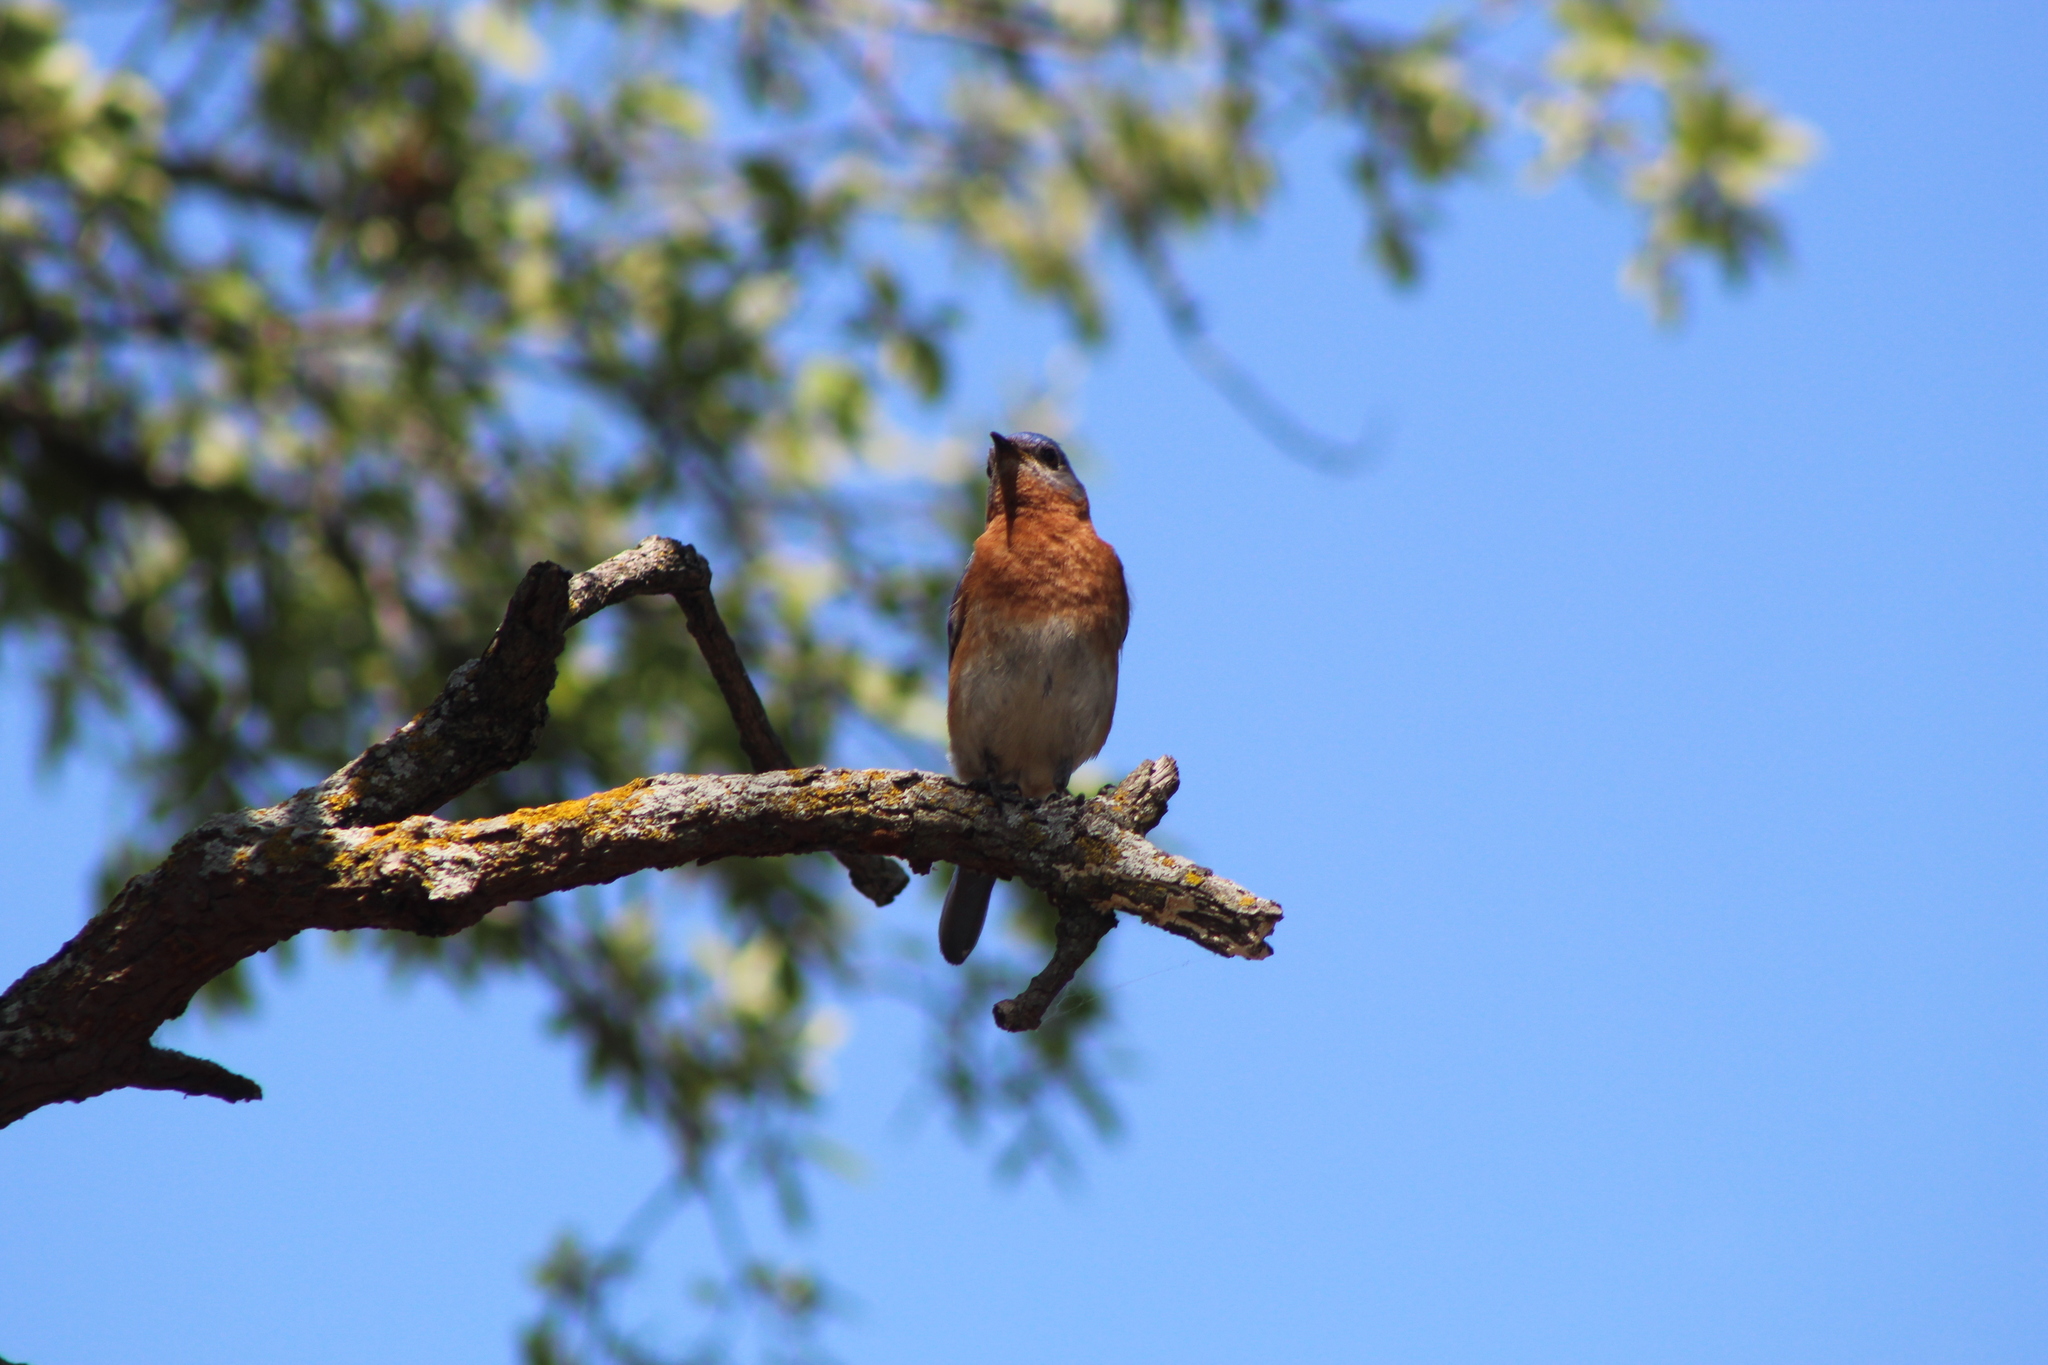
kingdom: Animalia
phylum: Chordata
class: Aves
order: Passeriformes
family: Turdidae
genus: Sialia
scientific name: Sialia sialis
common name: Eastern bluebird
